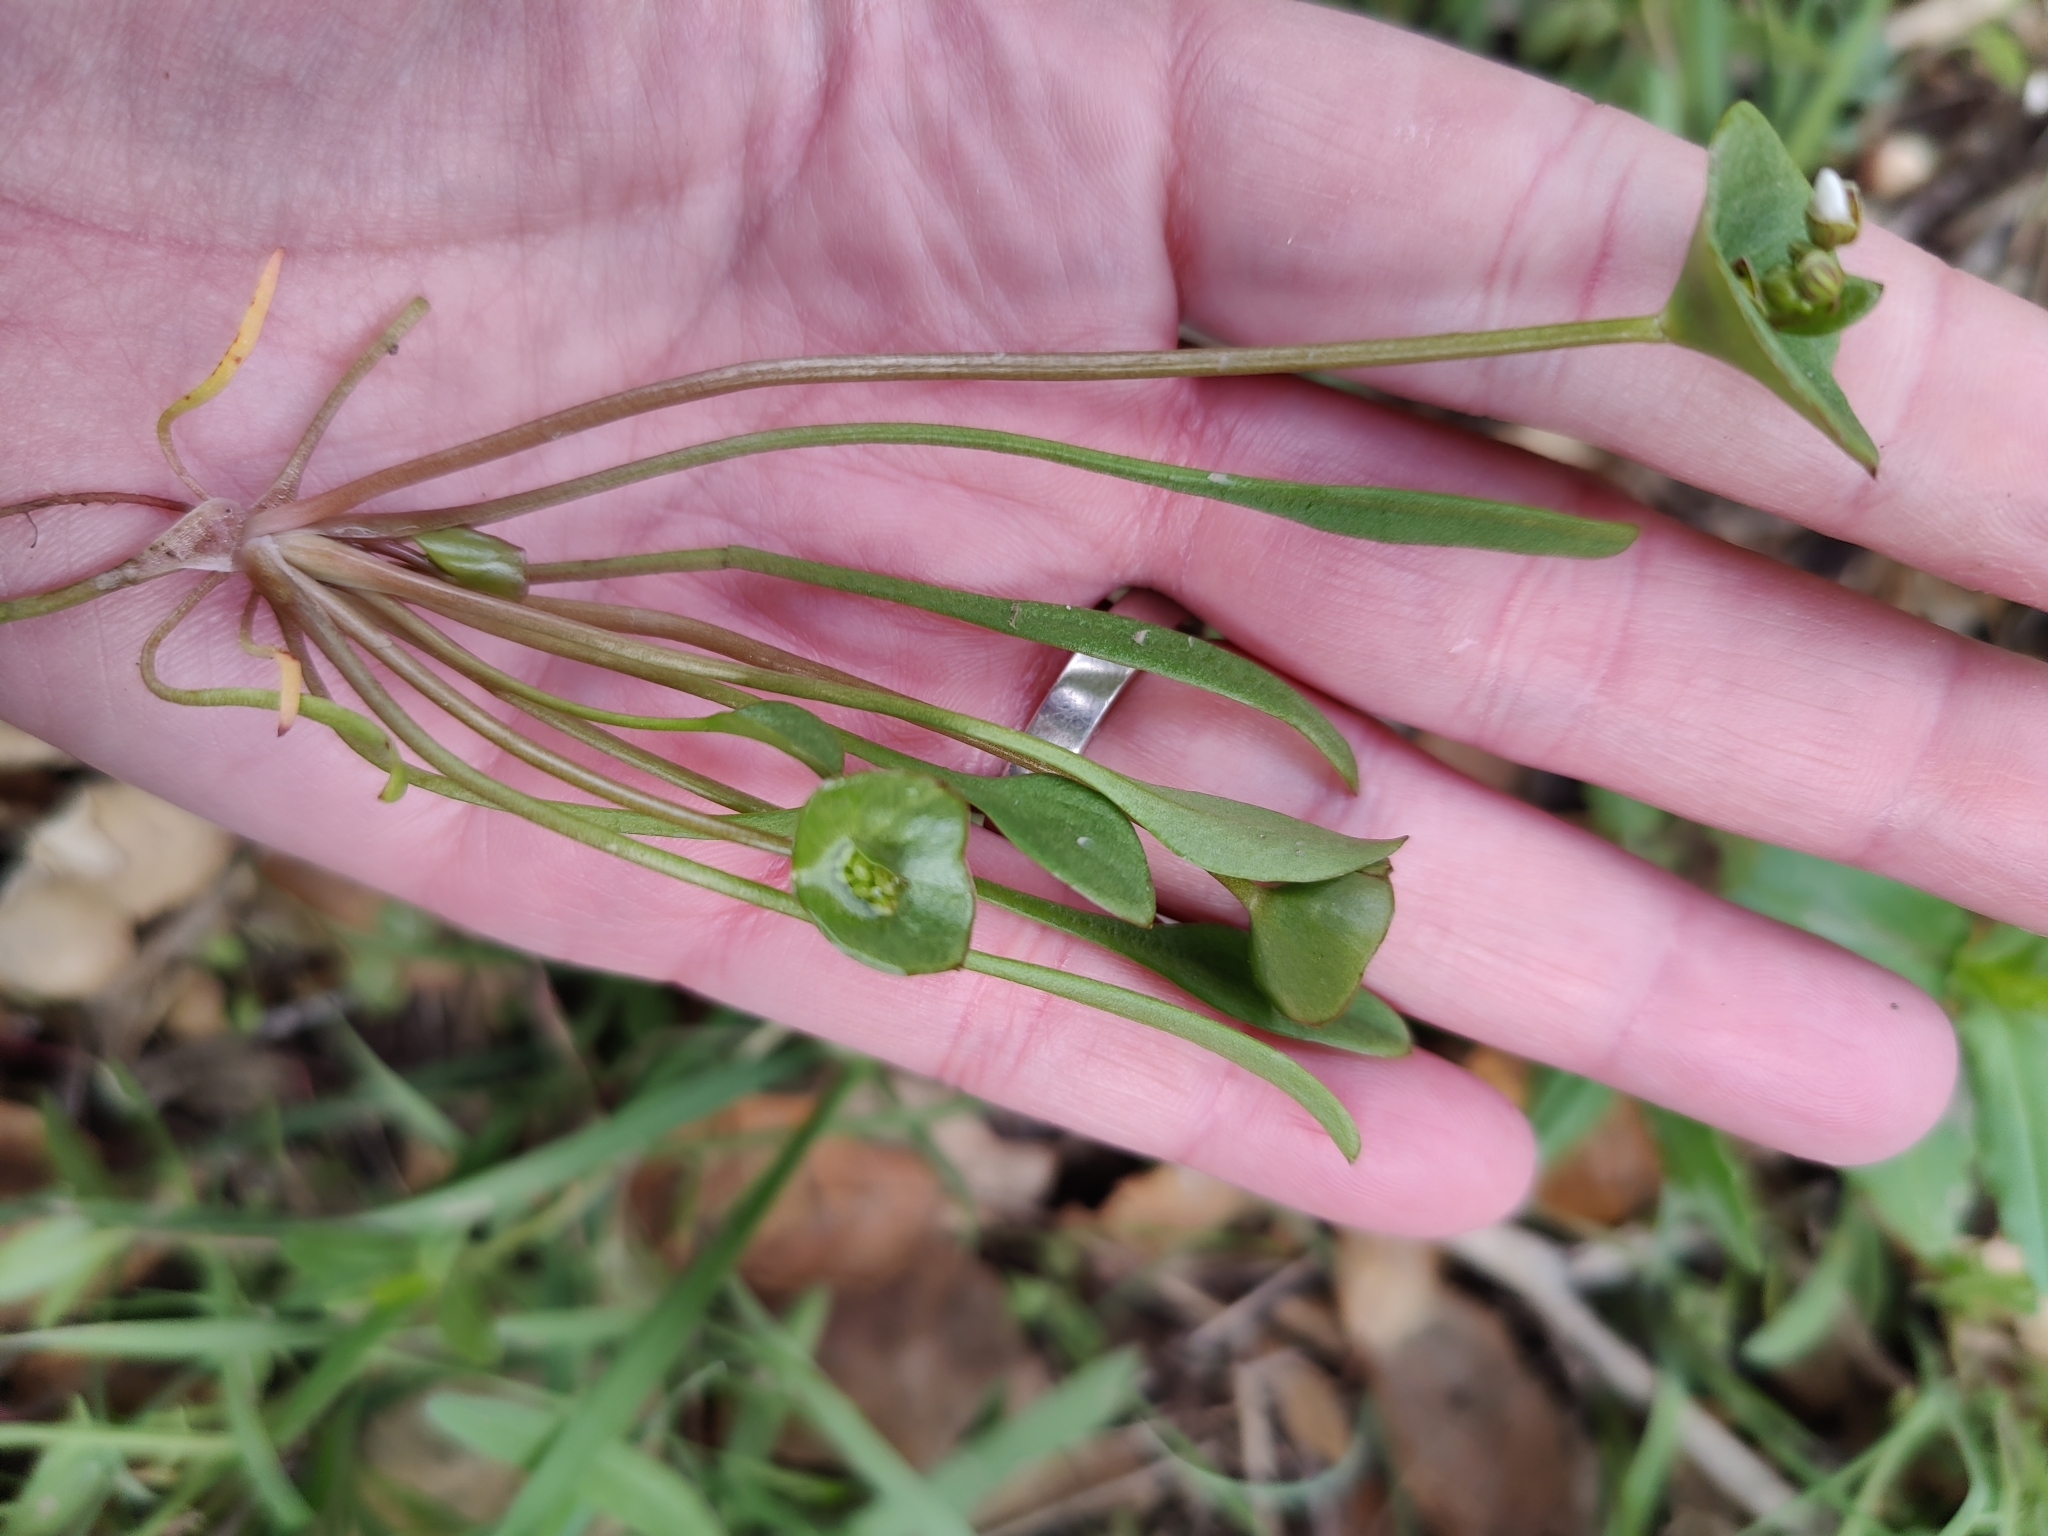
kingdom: Plantae
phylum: Tracheophyta
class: Magnoliopsida
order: Caryophyllales
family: Montiaceae
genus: Claytonia
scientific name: Claytonia perfoliata
